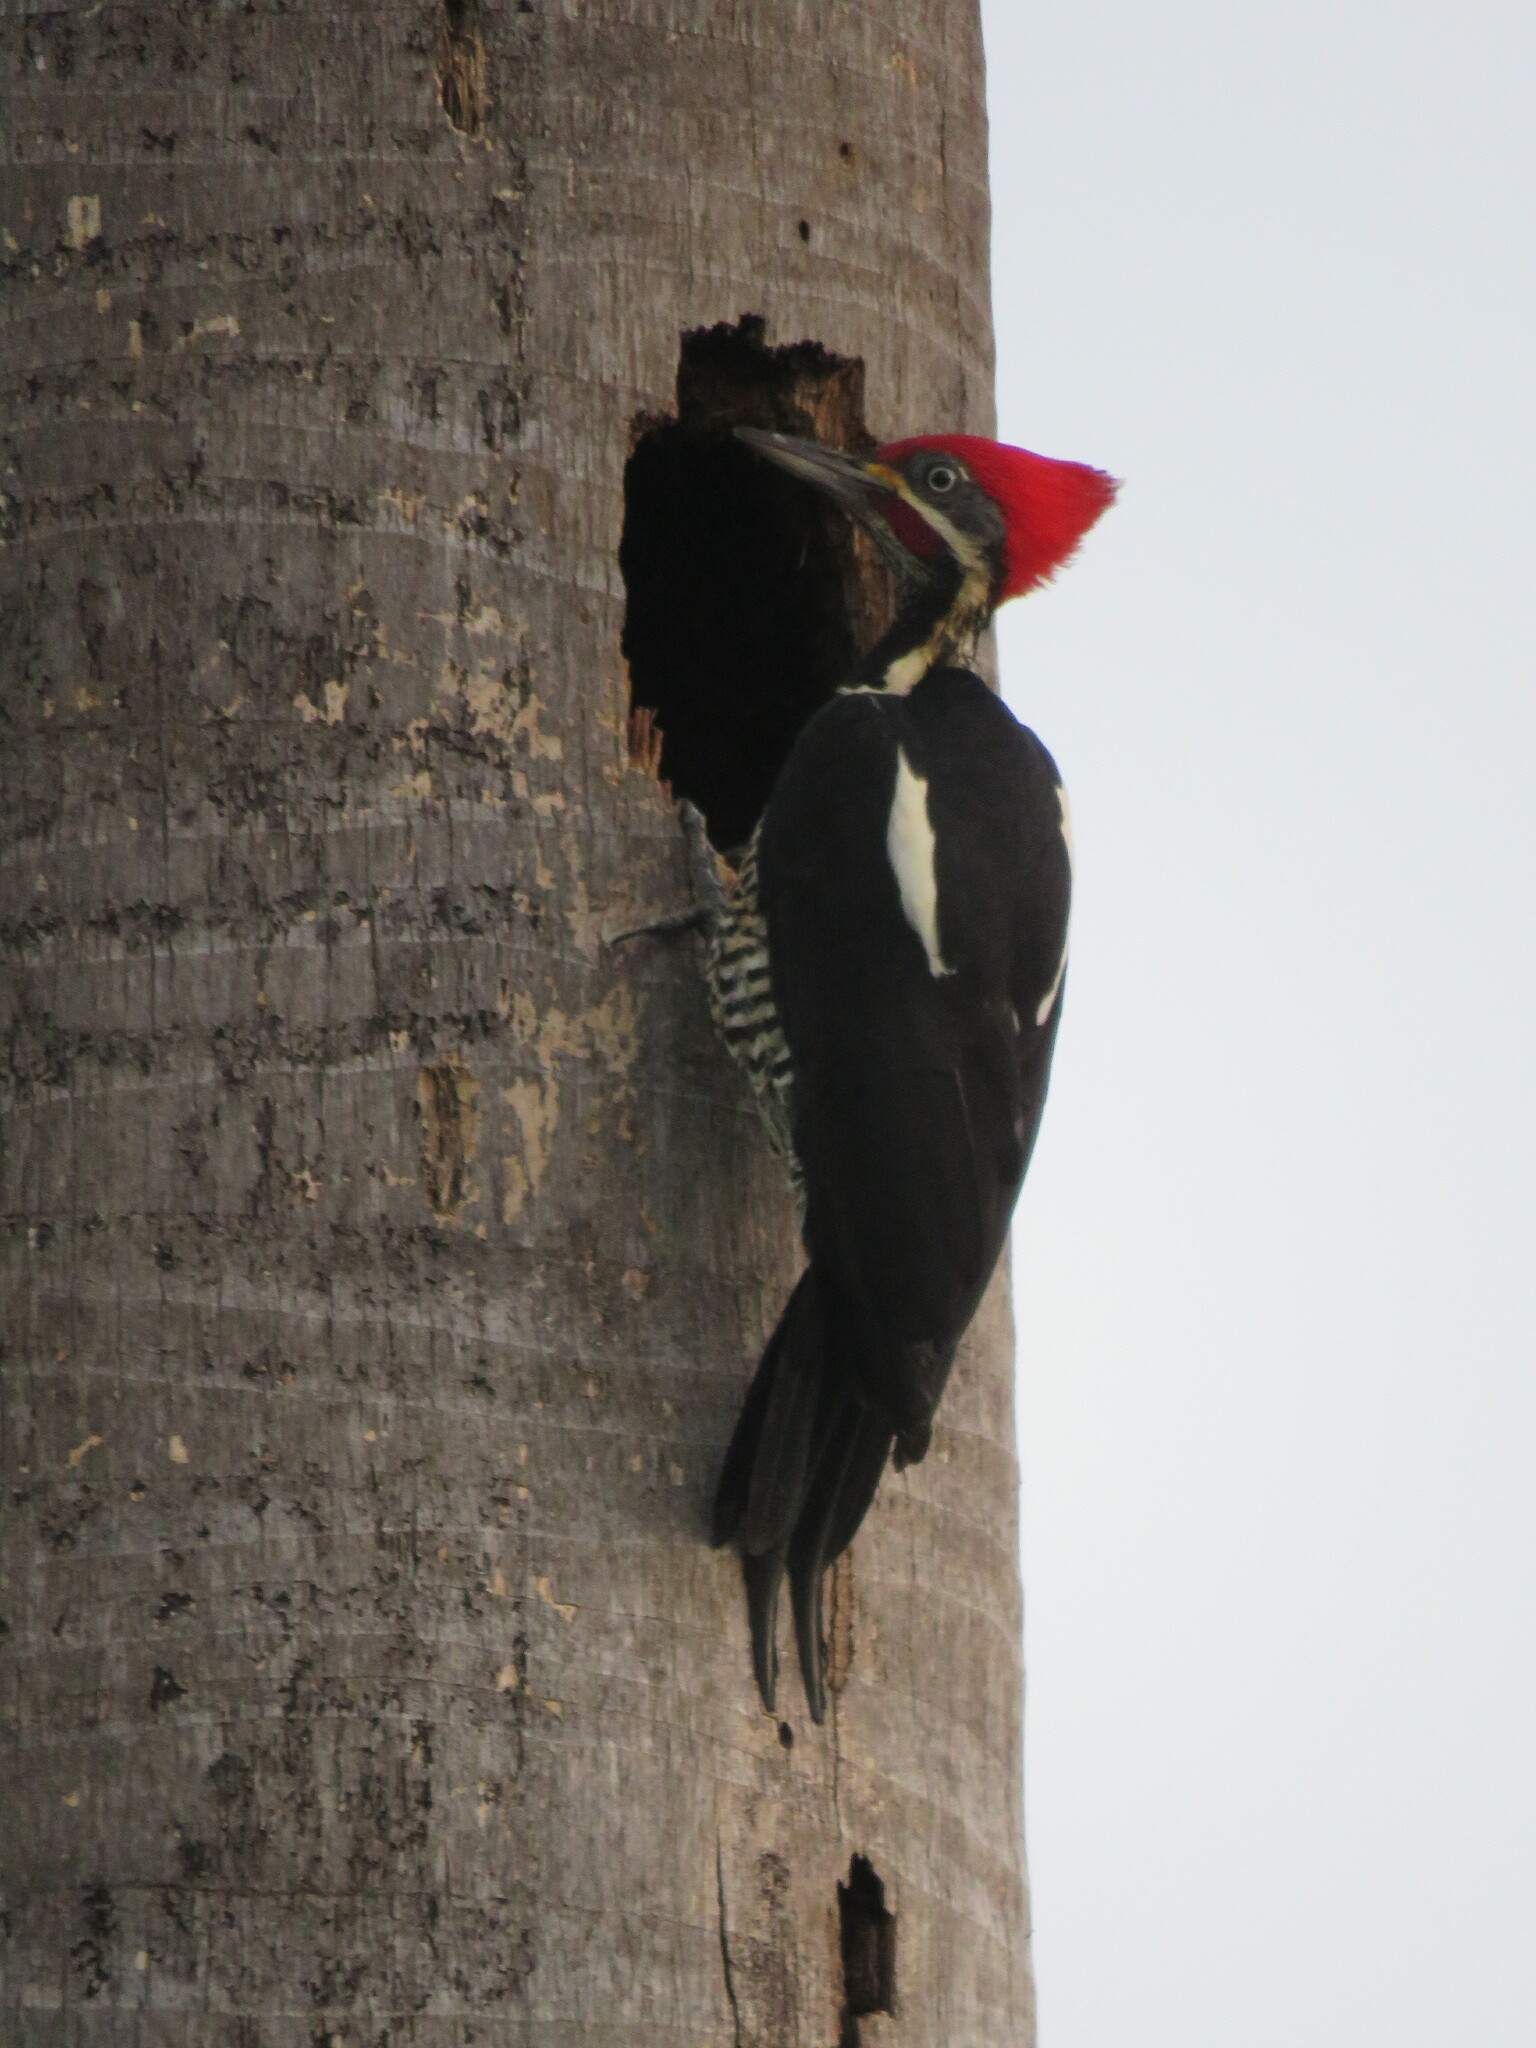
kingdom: Animalia
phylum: Chordata
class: Aves
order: Piciformes
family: Picidae
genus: Dryocopus
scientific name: Dryocopus lineatus
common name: Lineated woodpecker
